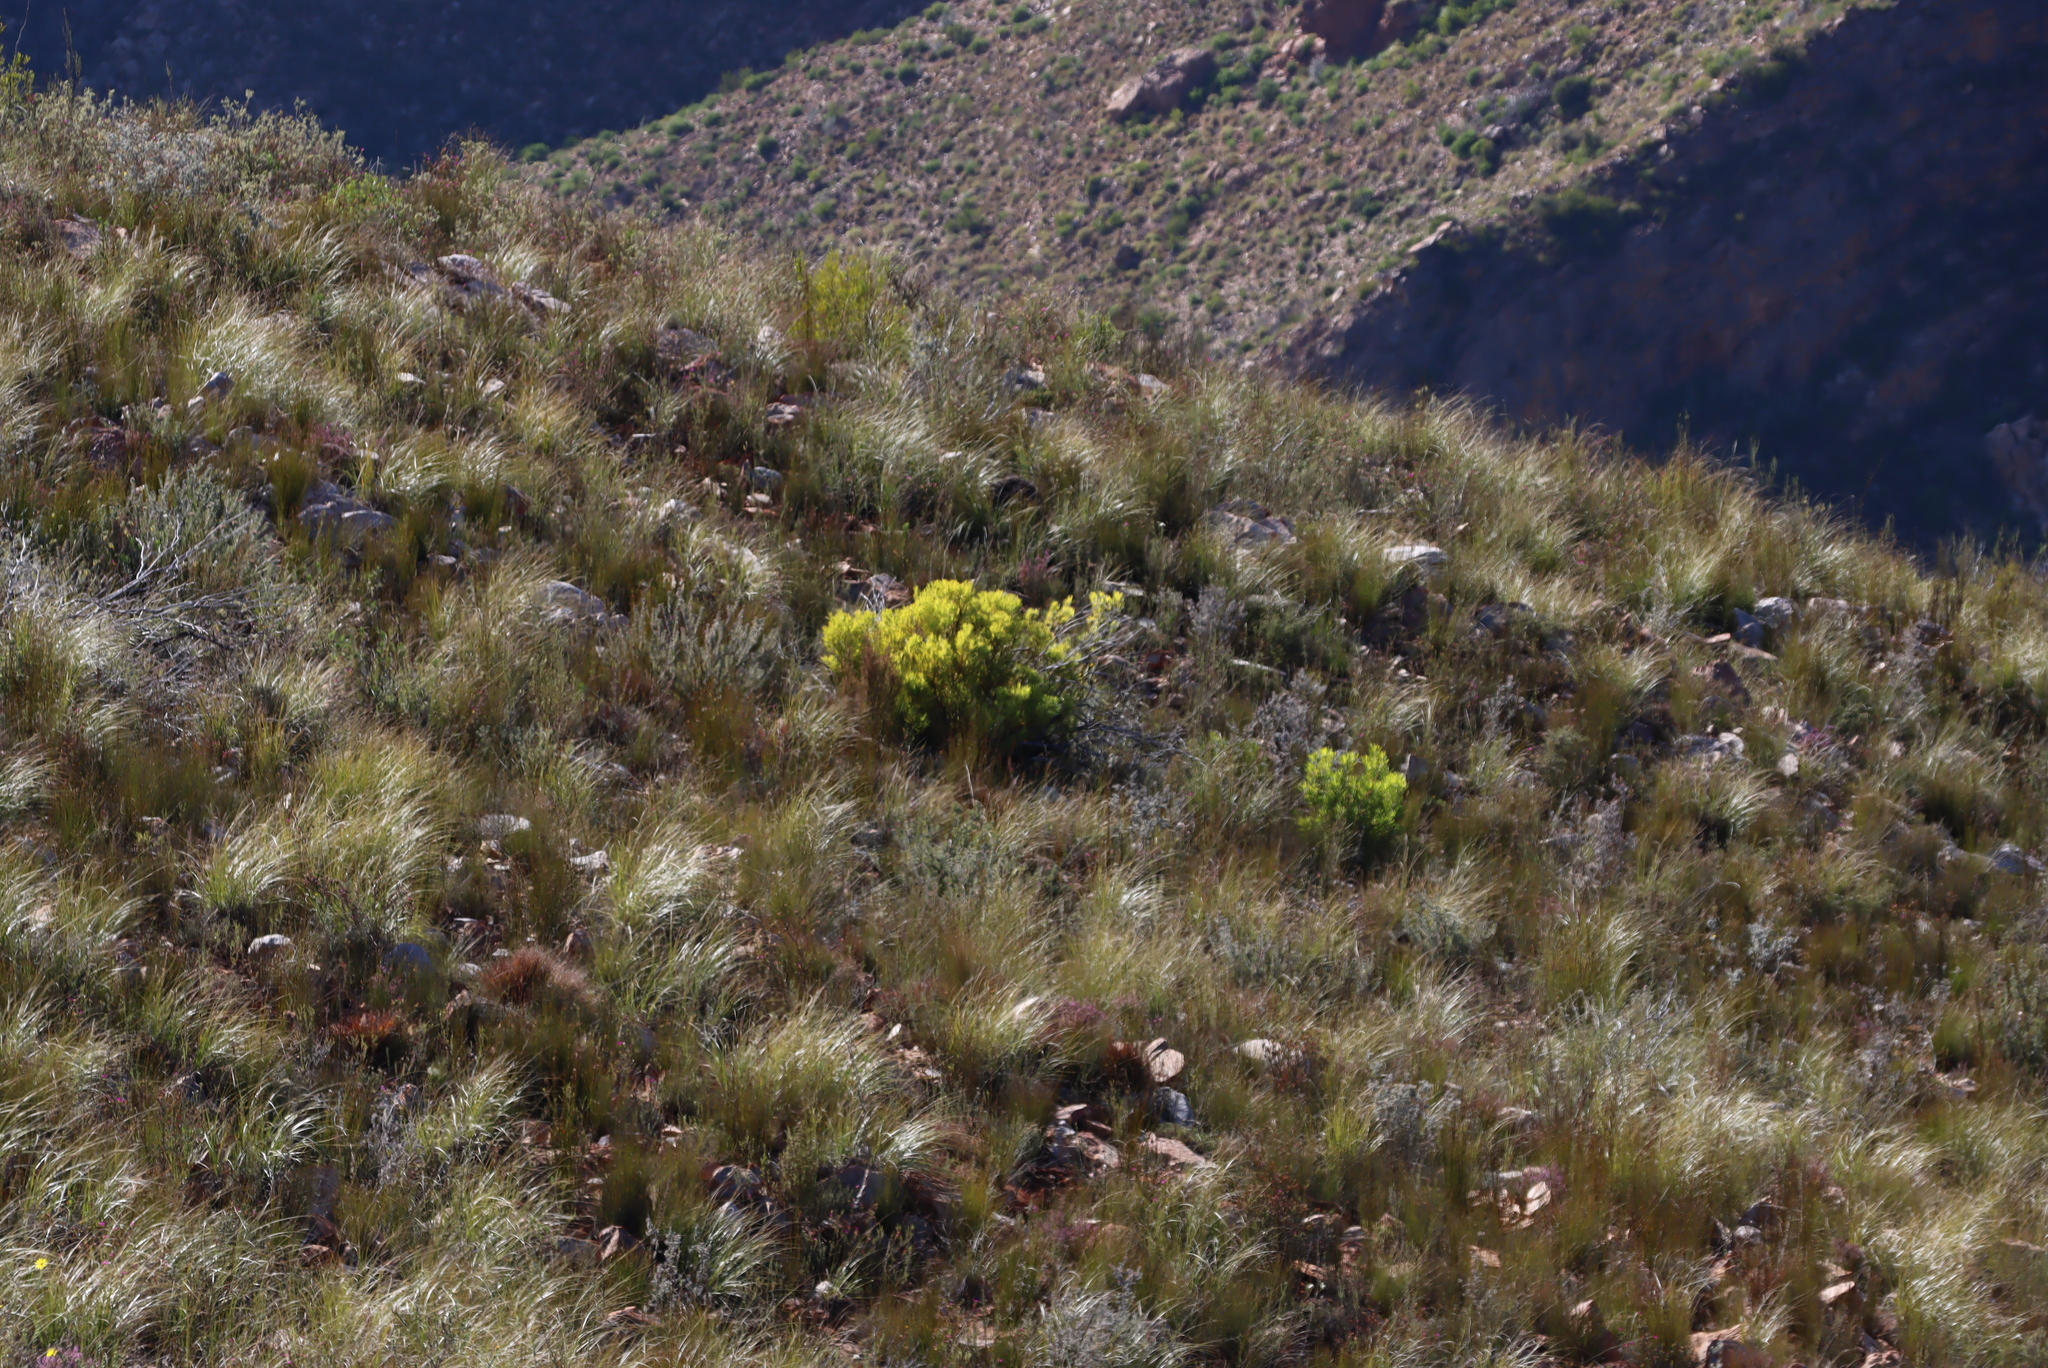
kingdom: Plantae
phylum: Tracheophyta
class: Magnoliopsida
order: Proteales
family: Proteaceae
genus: Leucadendron
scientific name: Leucadendron salignum
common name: Common sunshine conebush
